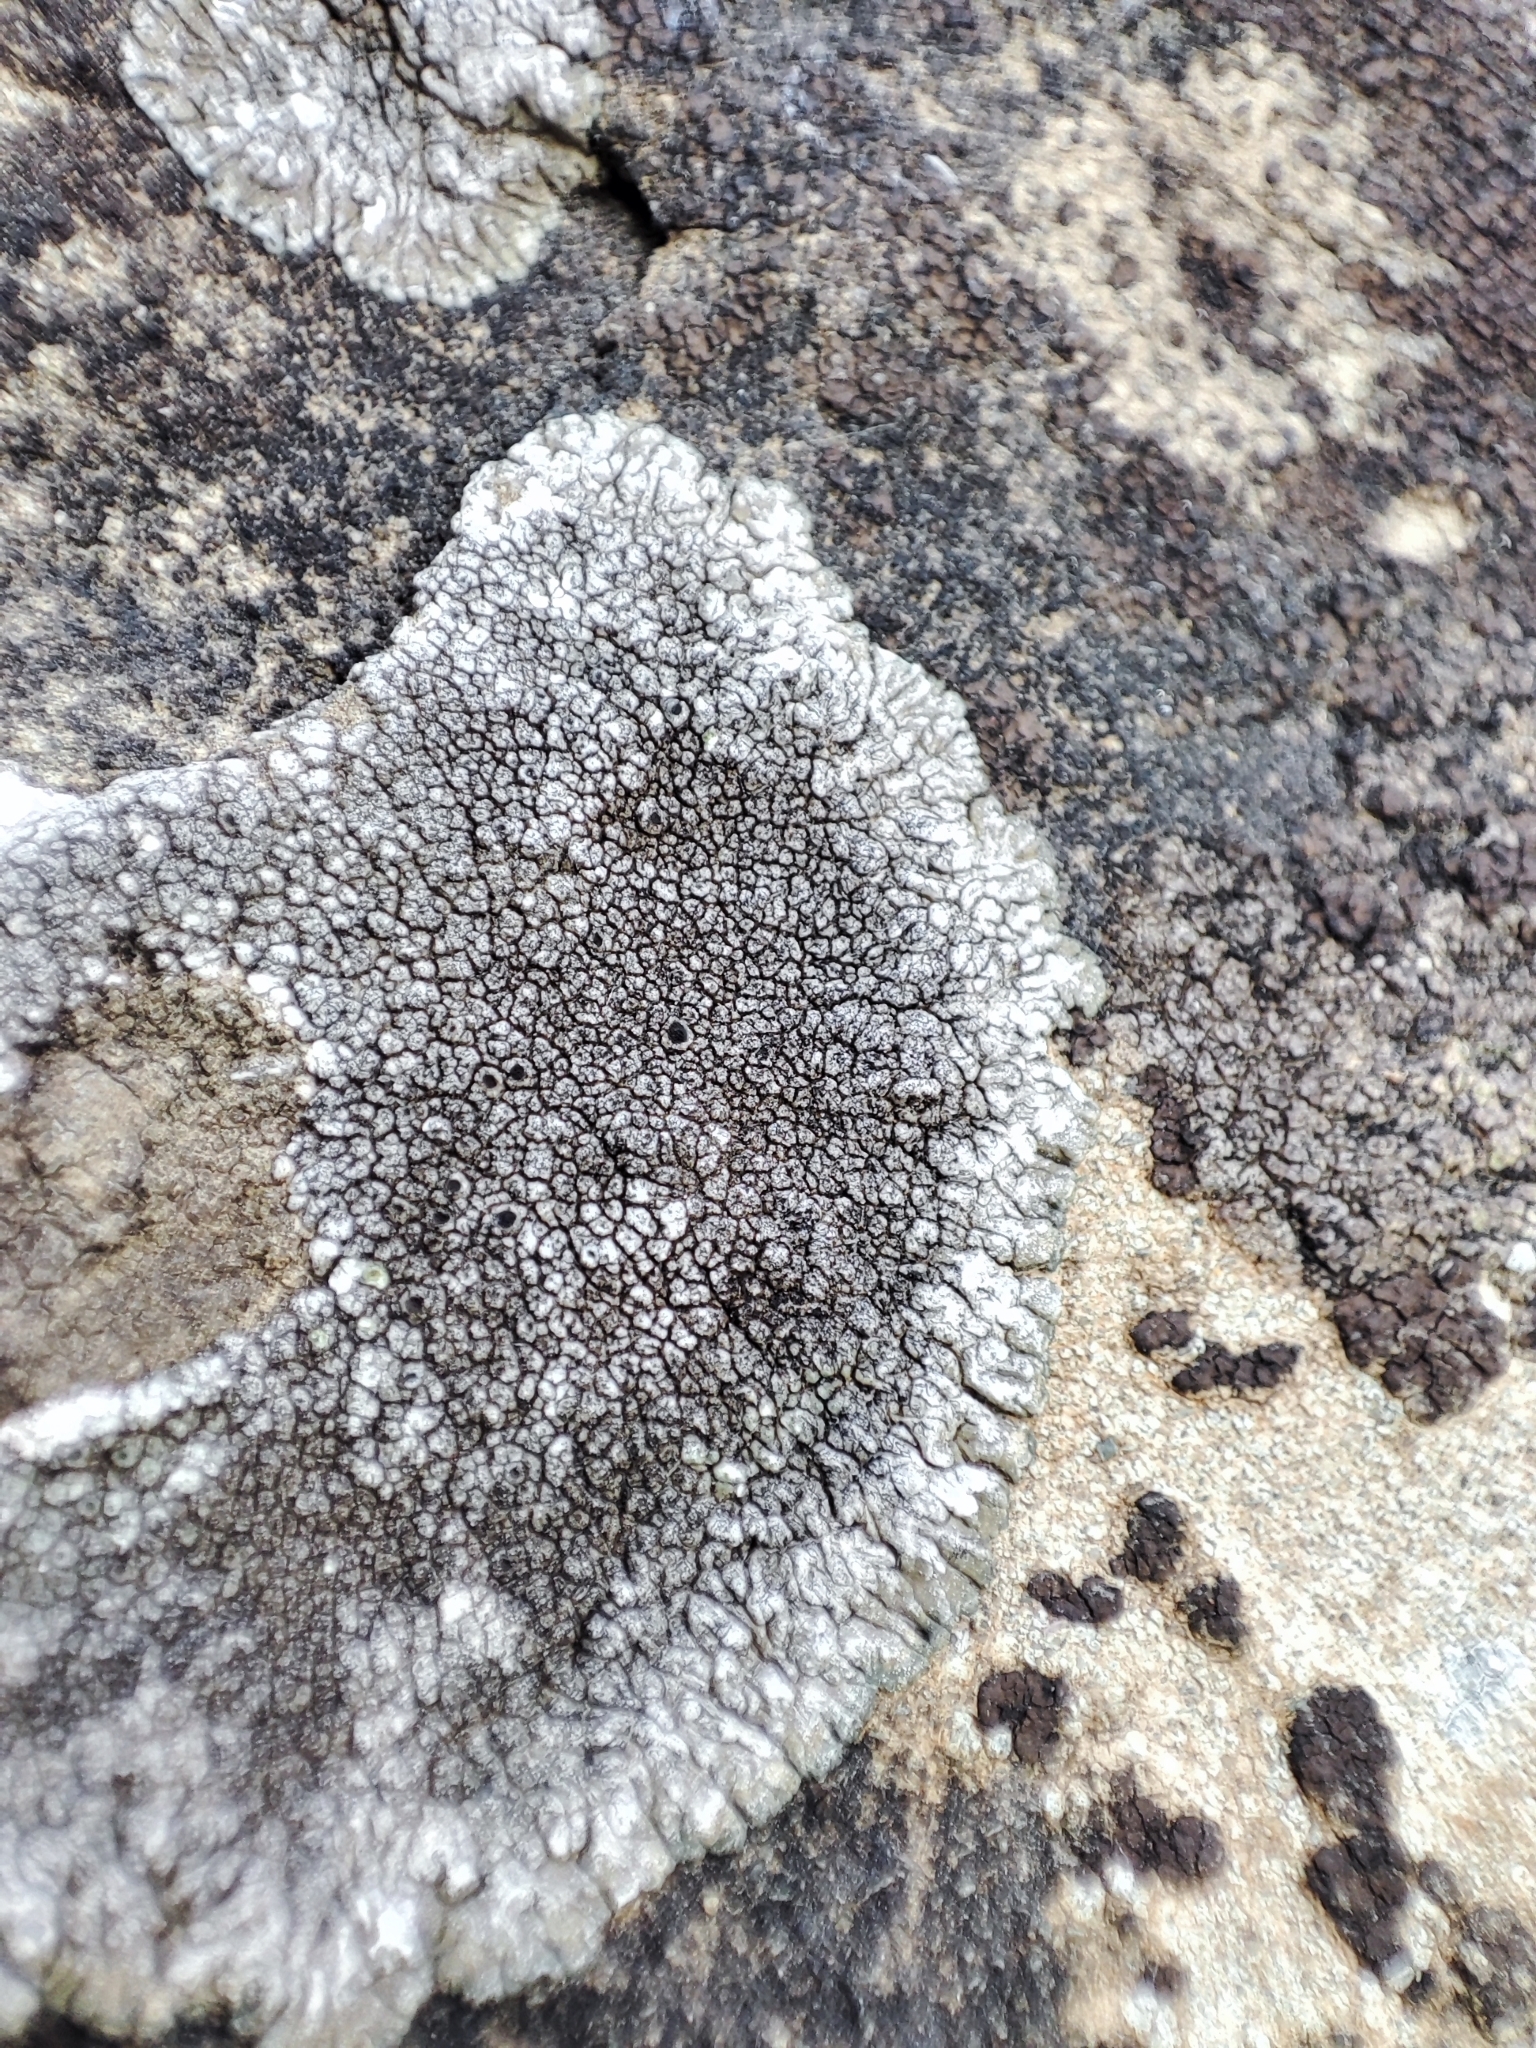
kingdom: Fungi
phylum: Ascomycota
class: Lecanoromycetes
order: Pertusariales
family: Megasporaceae
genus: Lobothallia
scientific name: Lobothallia radiosa
